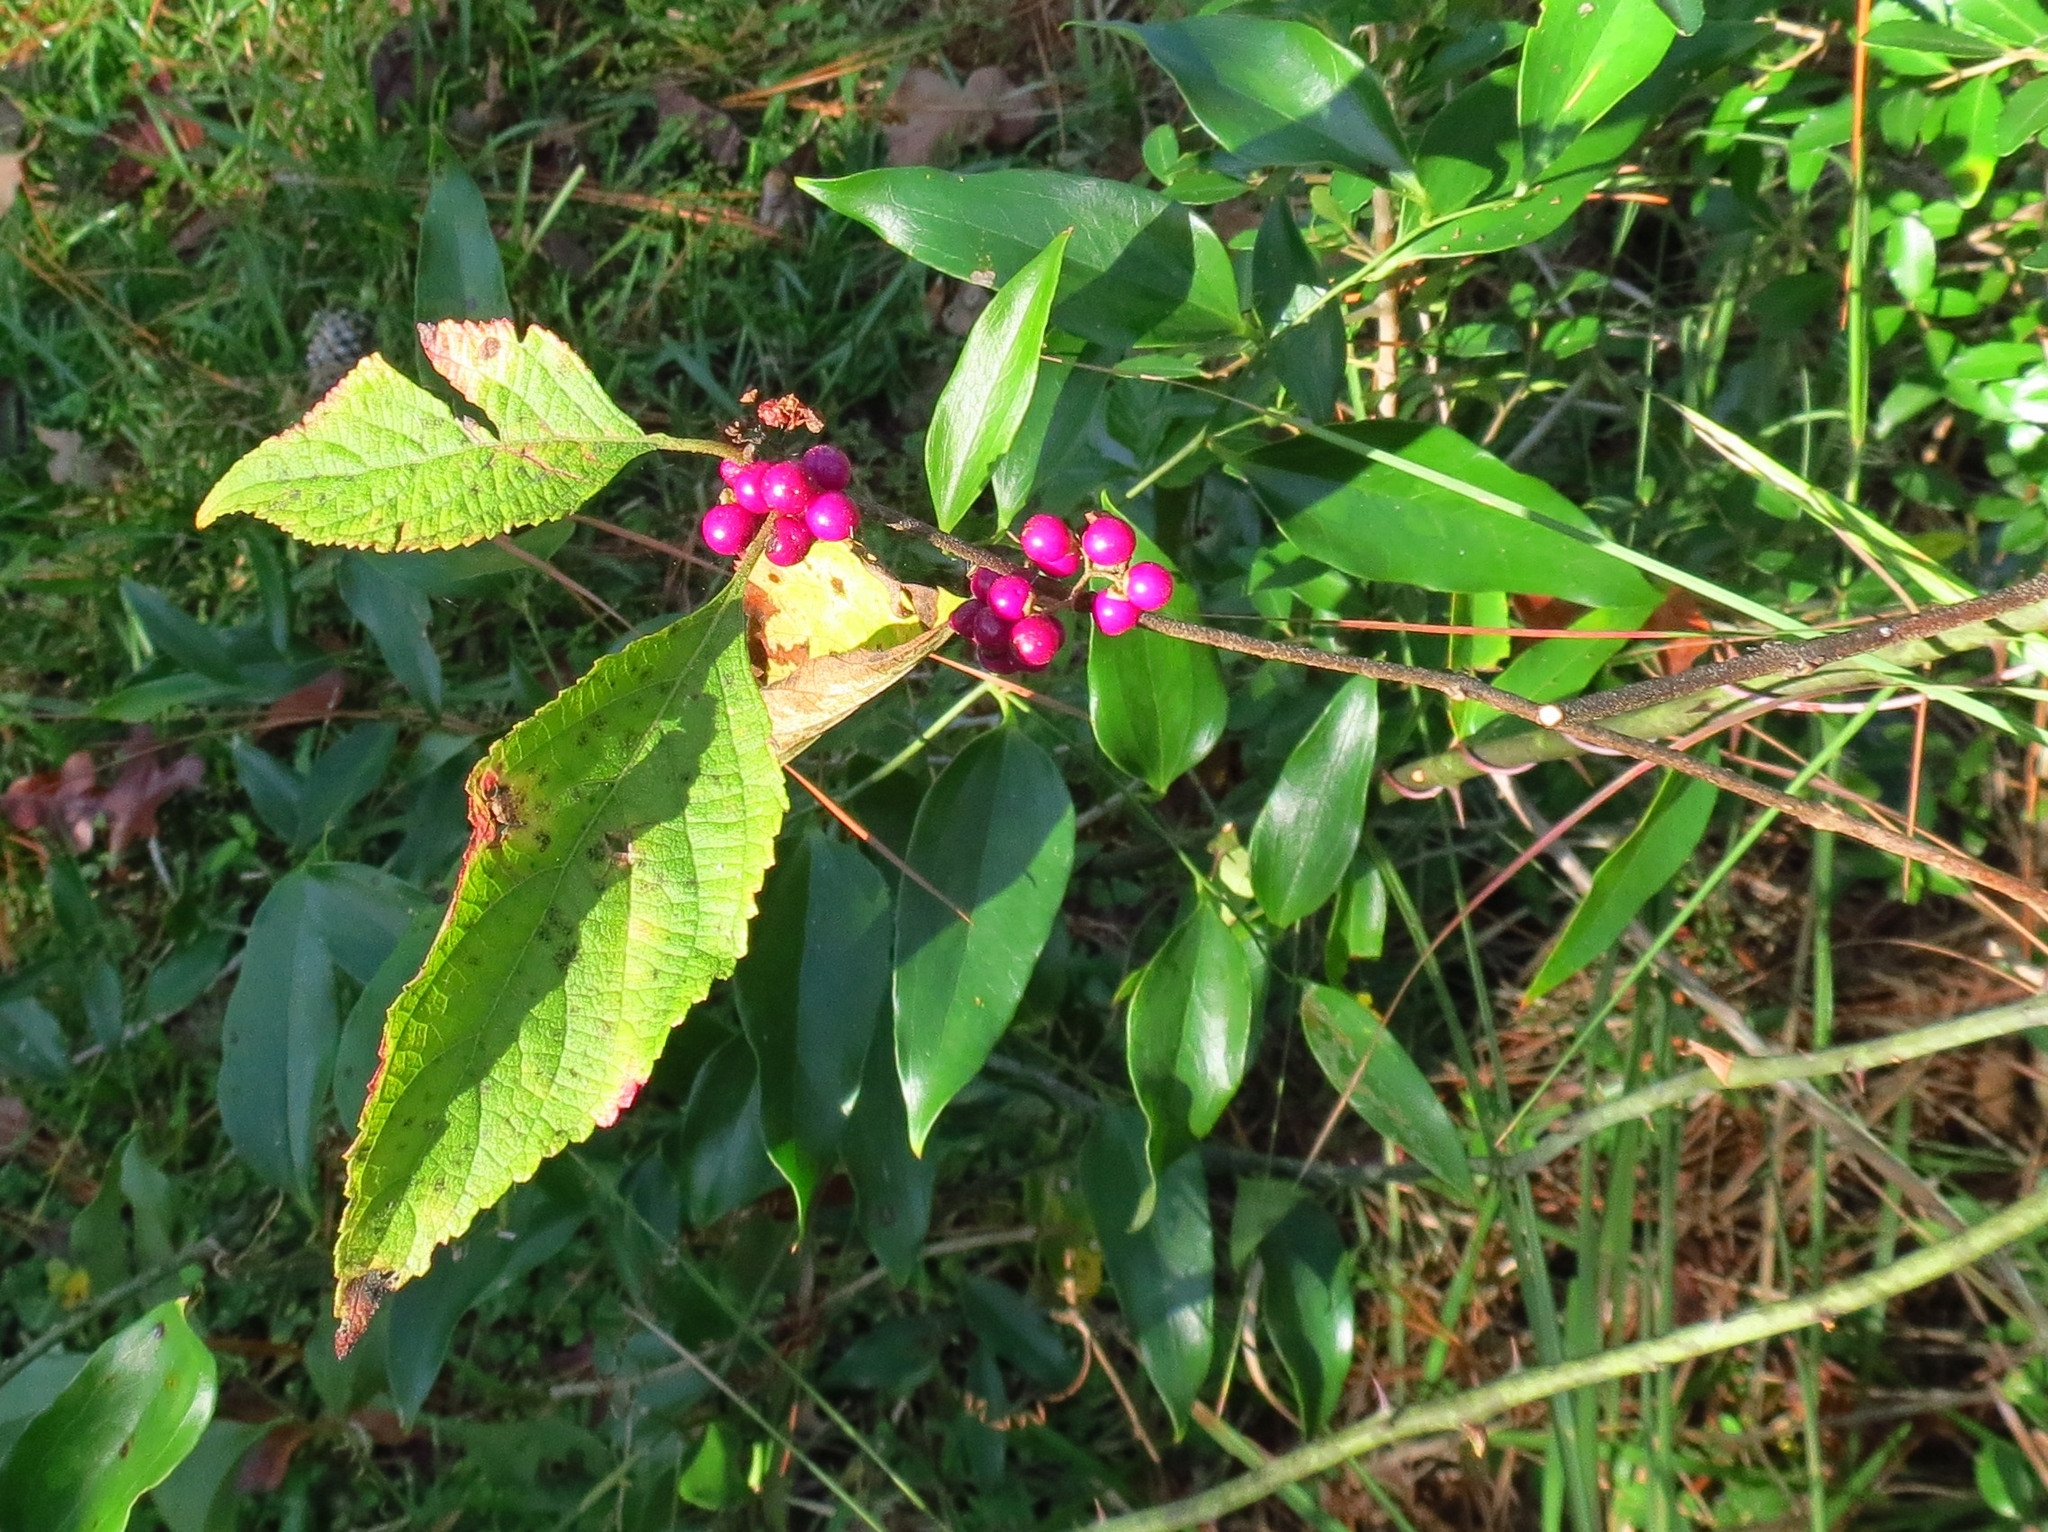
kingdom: Plantae
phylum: Tracheophyta
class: Magnoliopsida
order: Lamiales
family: Lamiaceae
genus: Callicarpa
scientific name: Callicarpa americana
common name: American beautyberry
